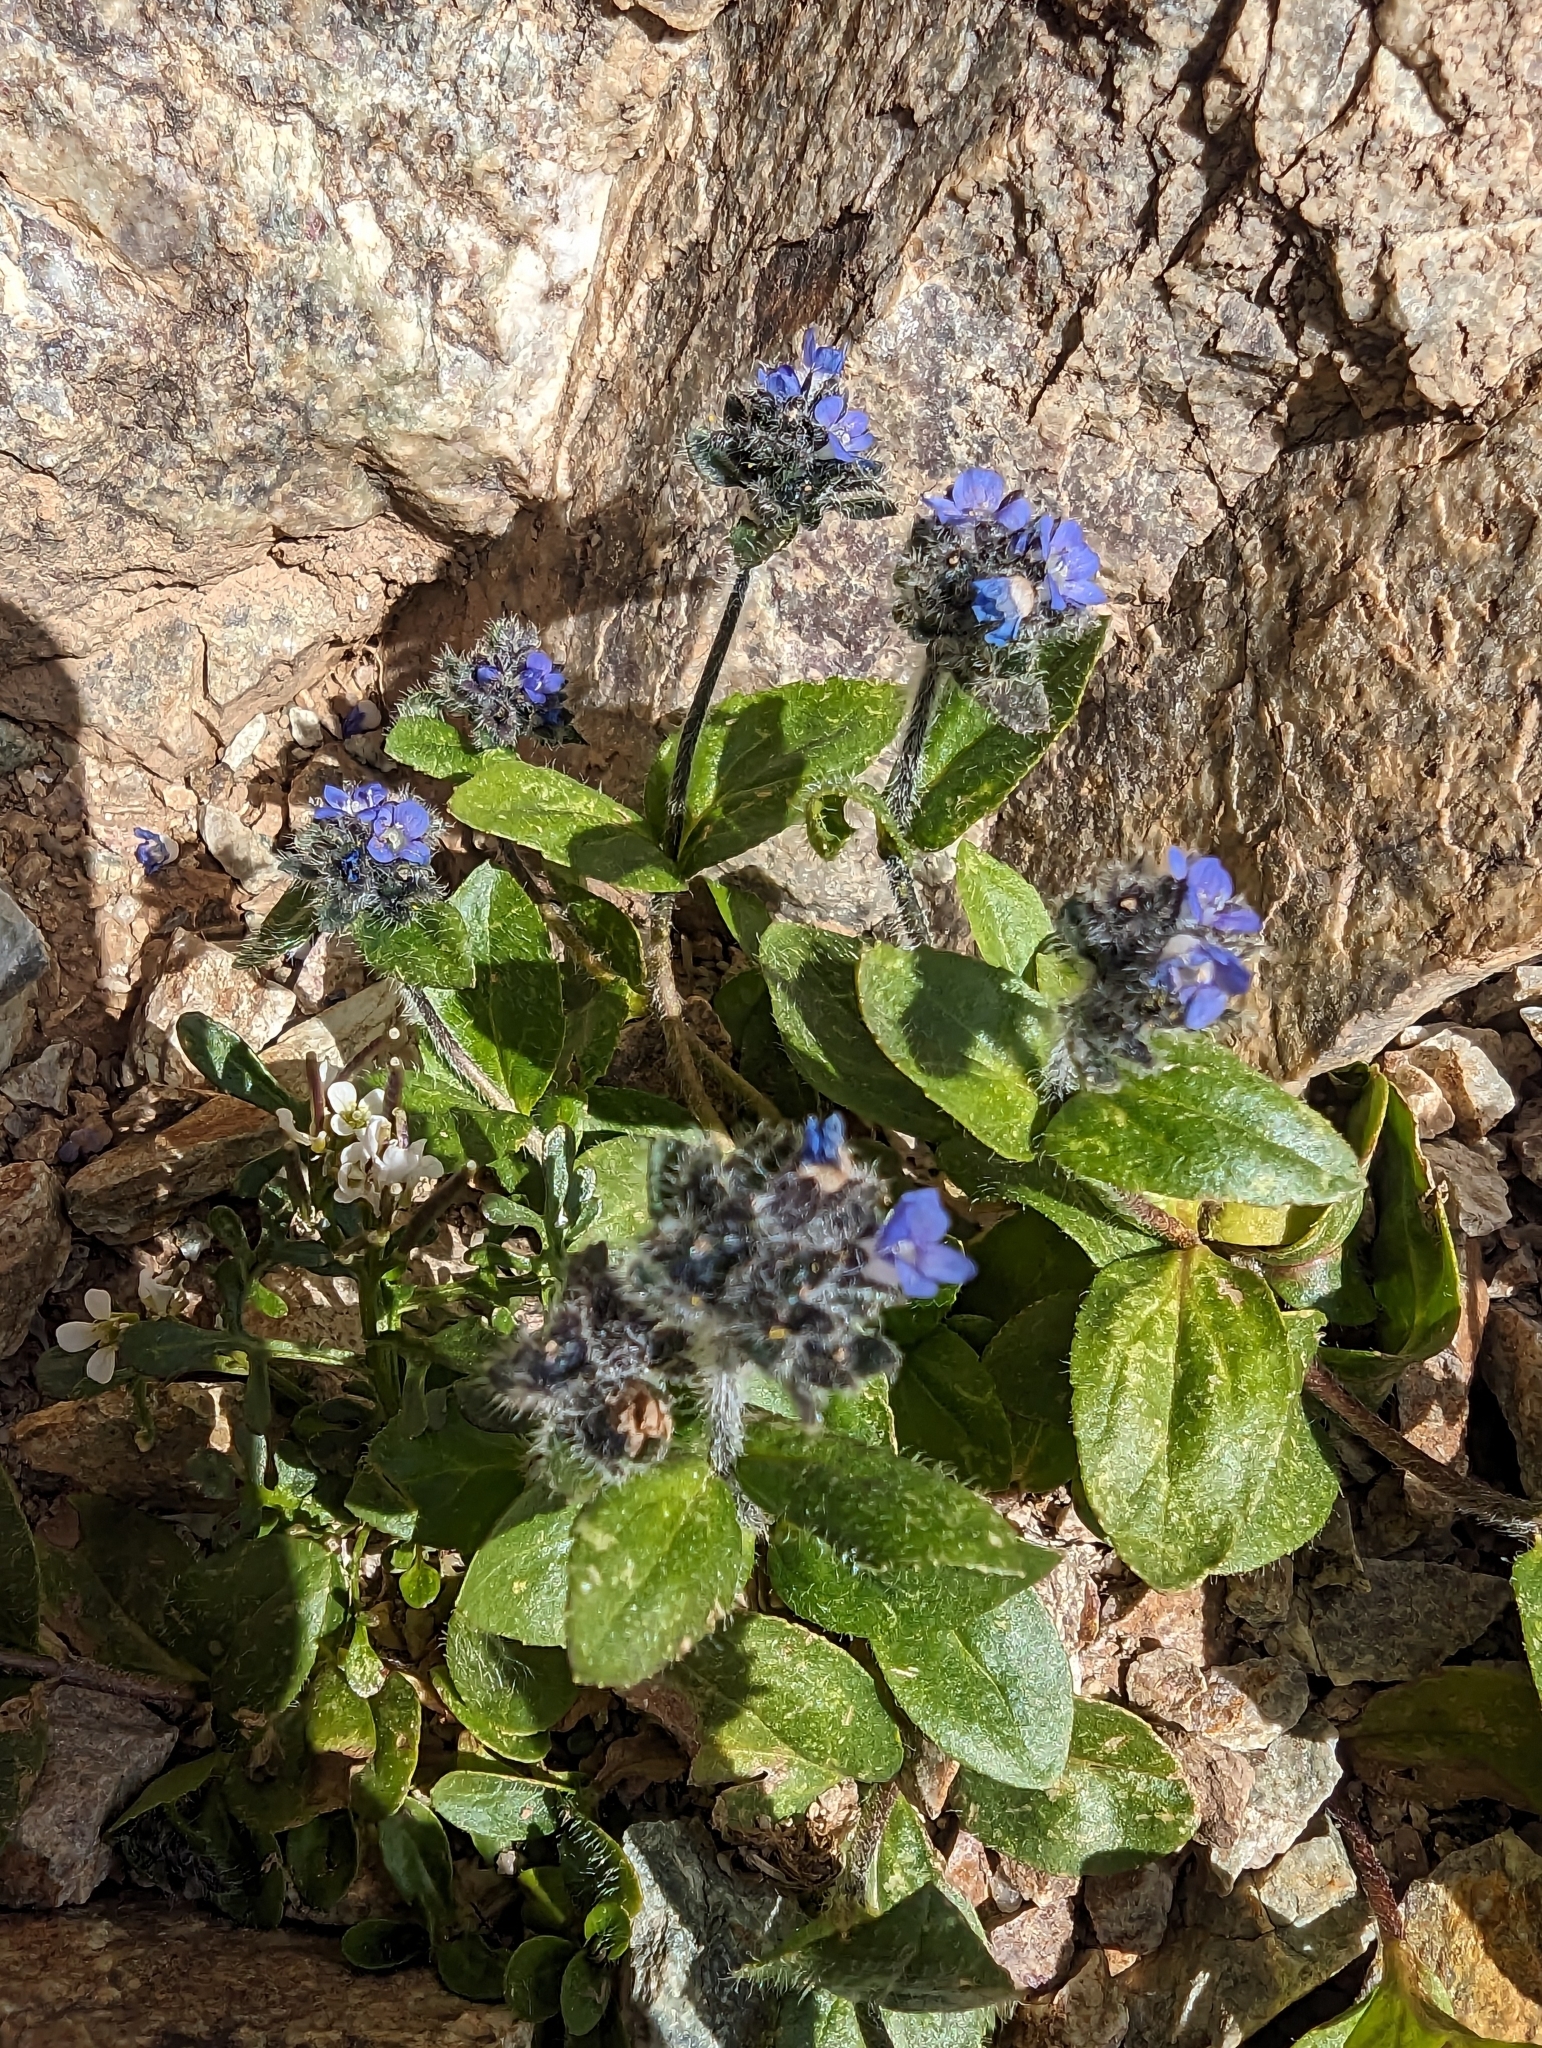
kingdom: Plantae
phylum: Tracheophyta
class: Magnoliopsida
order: Lamiales
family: Plantaginaceae
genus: Veronica
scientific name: Veronica alpina
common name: Alpine speedwell
